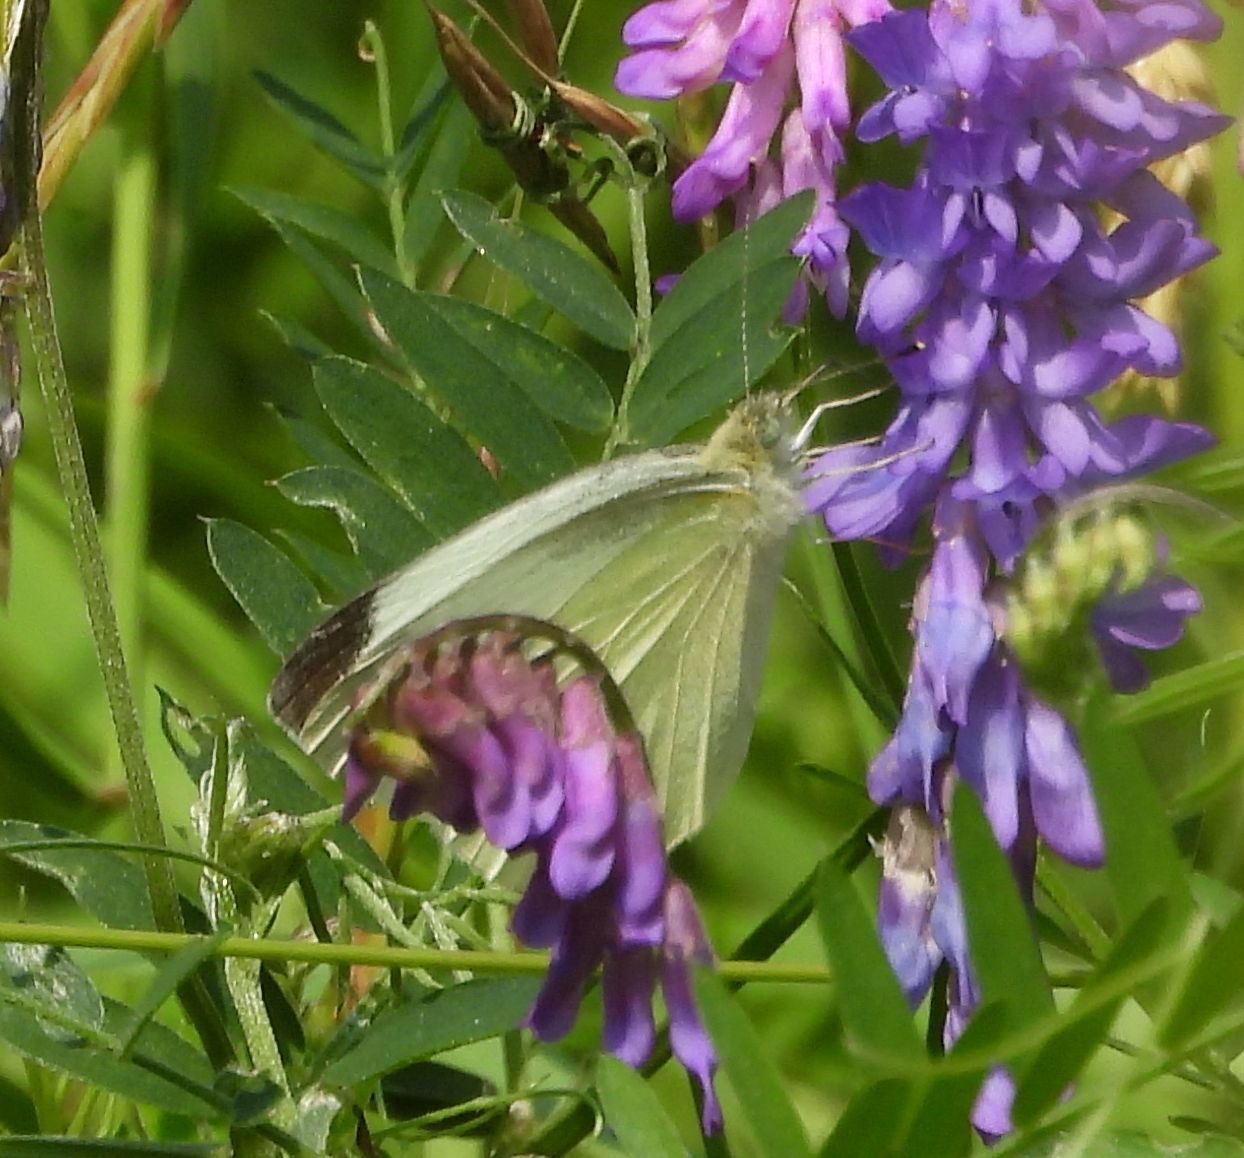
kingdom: Animalia
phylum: Arthropoda
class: Insecta
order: Lepidoptera
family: Pieridae
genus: Pieris
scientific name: Pieris rapae
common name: Small white
